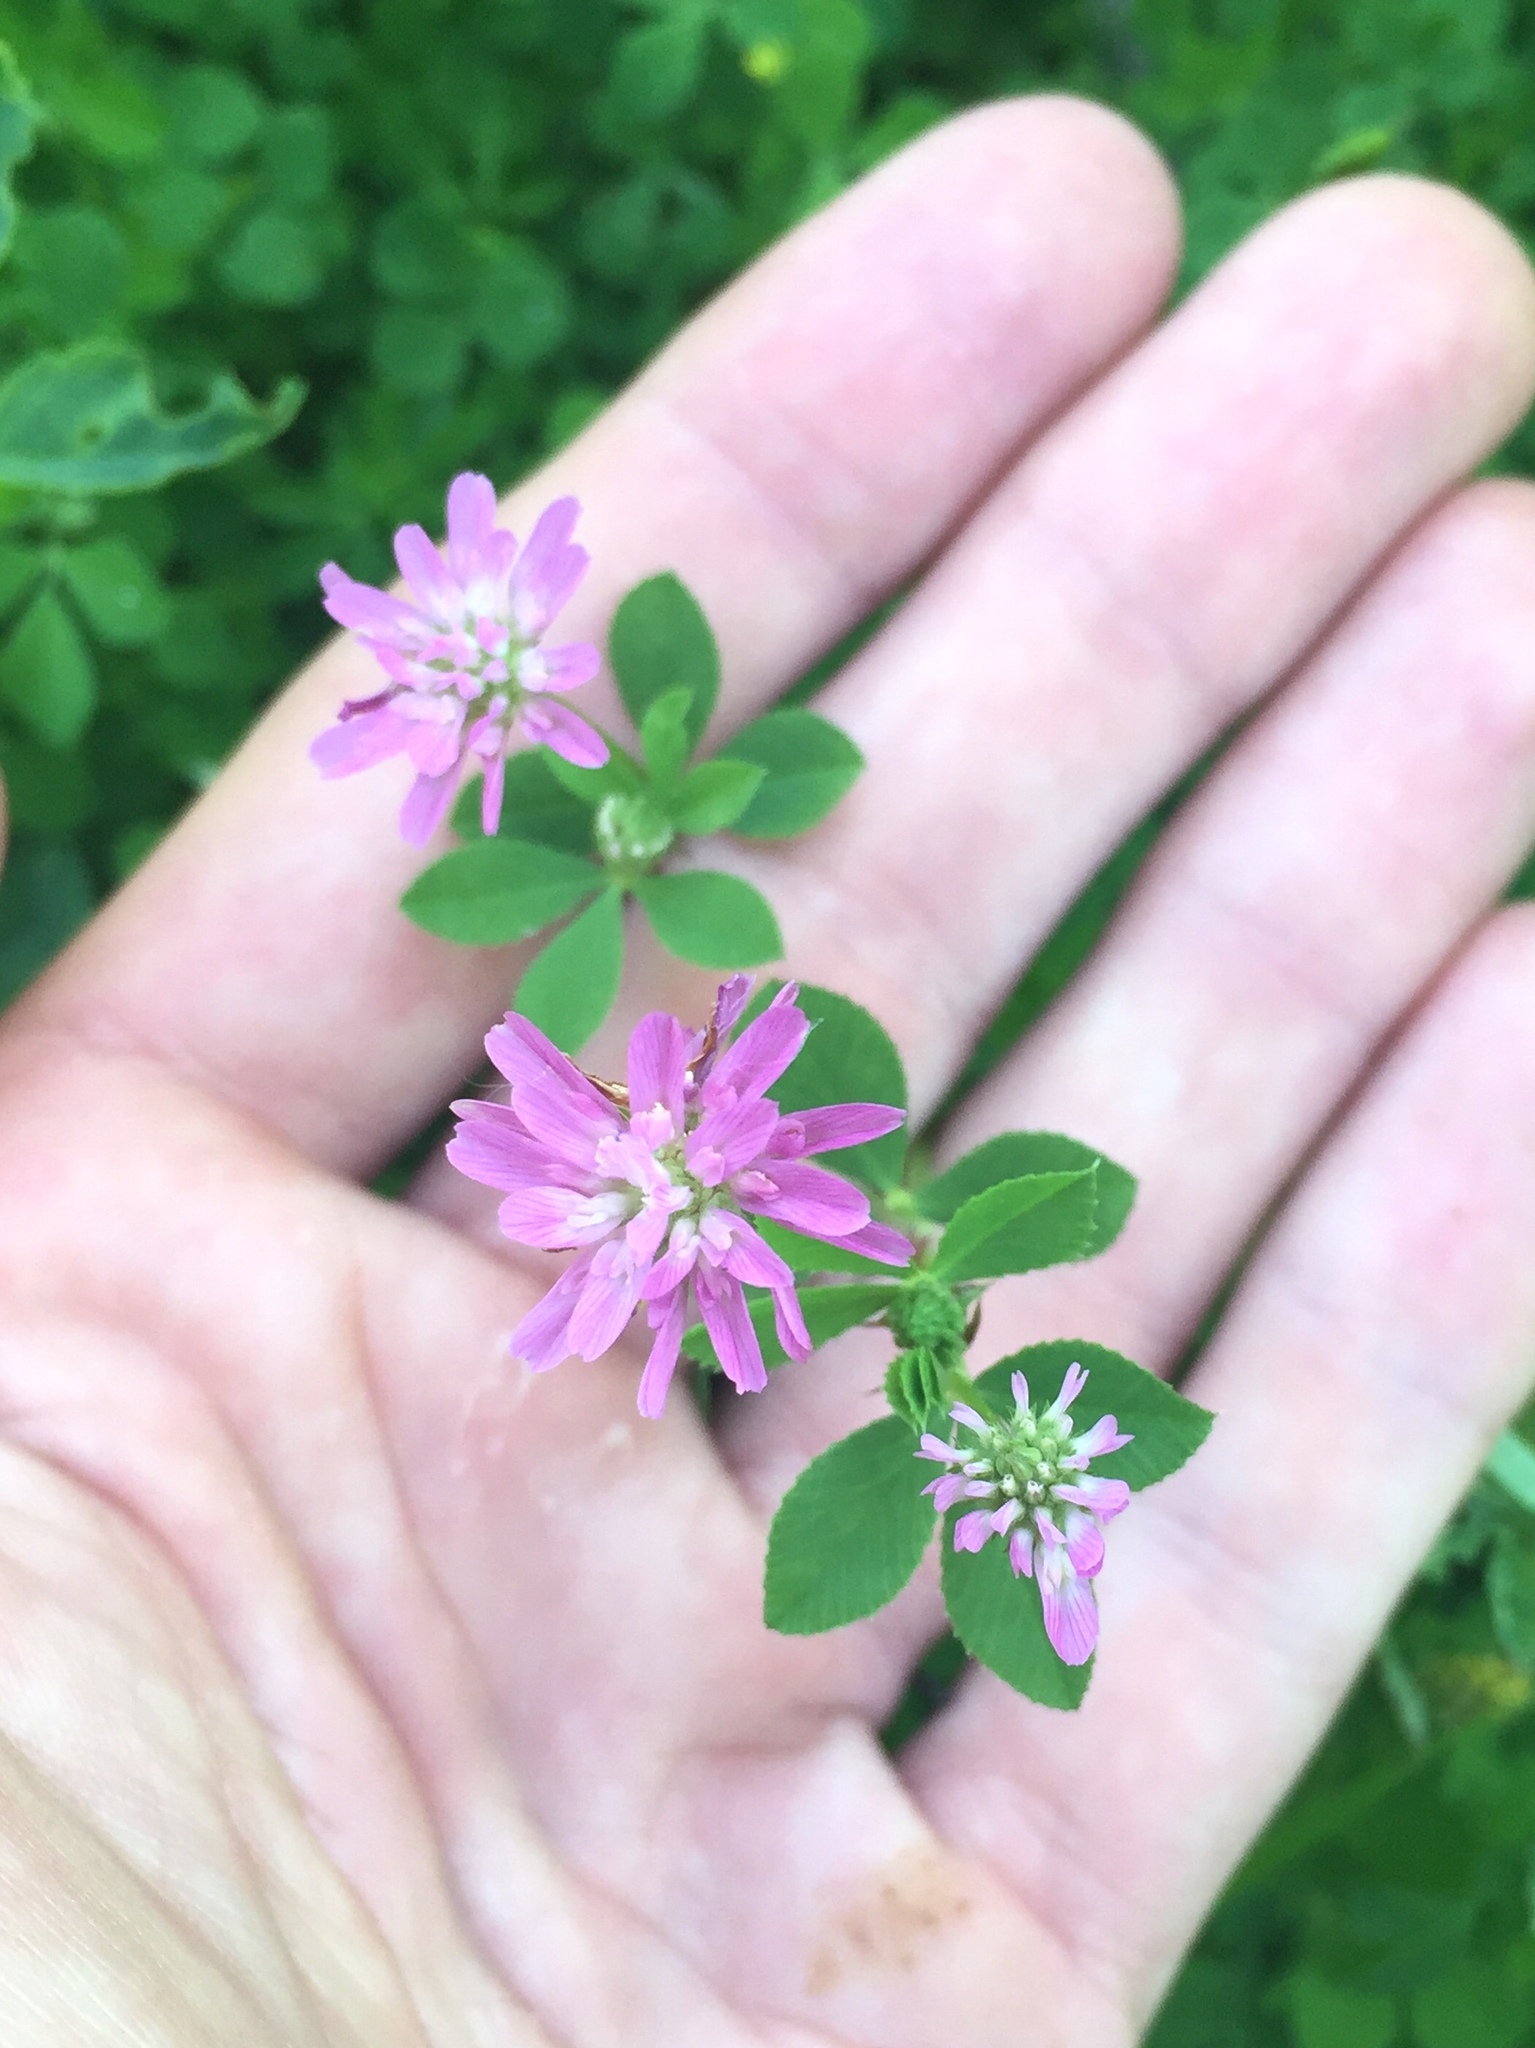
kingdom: Plantae
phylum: Tracheophyta
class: Magnoliopsida
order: Fabales
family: Fabaceae
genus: Trifolium
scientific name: Trifolium resupinatum
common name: Reversed clover
